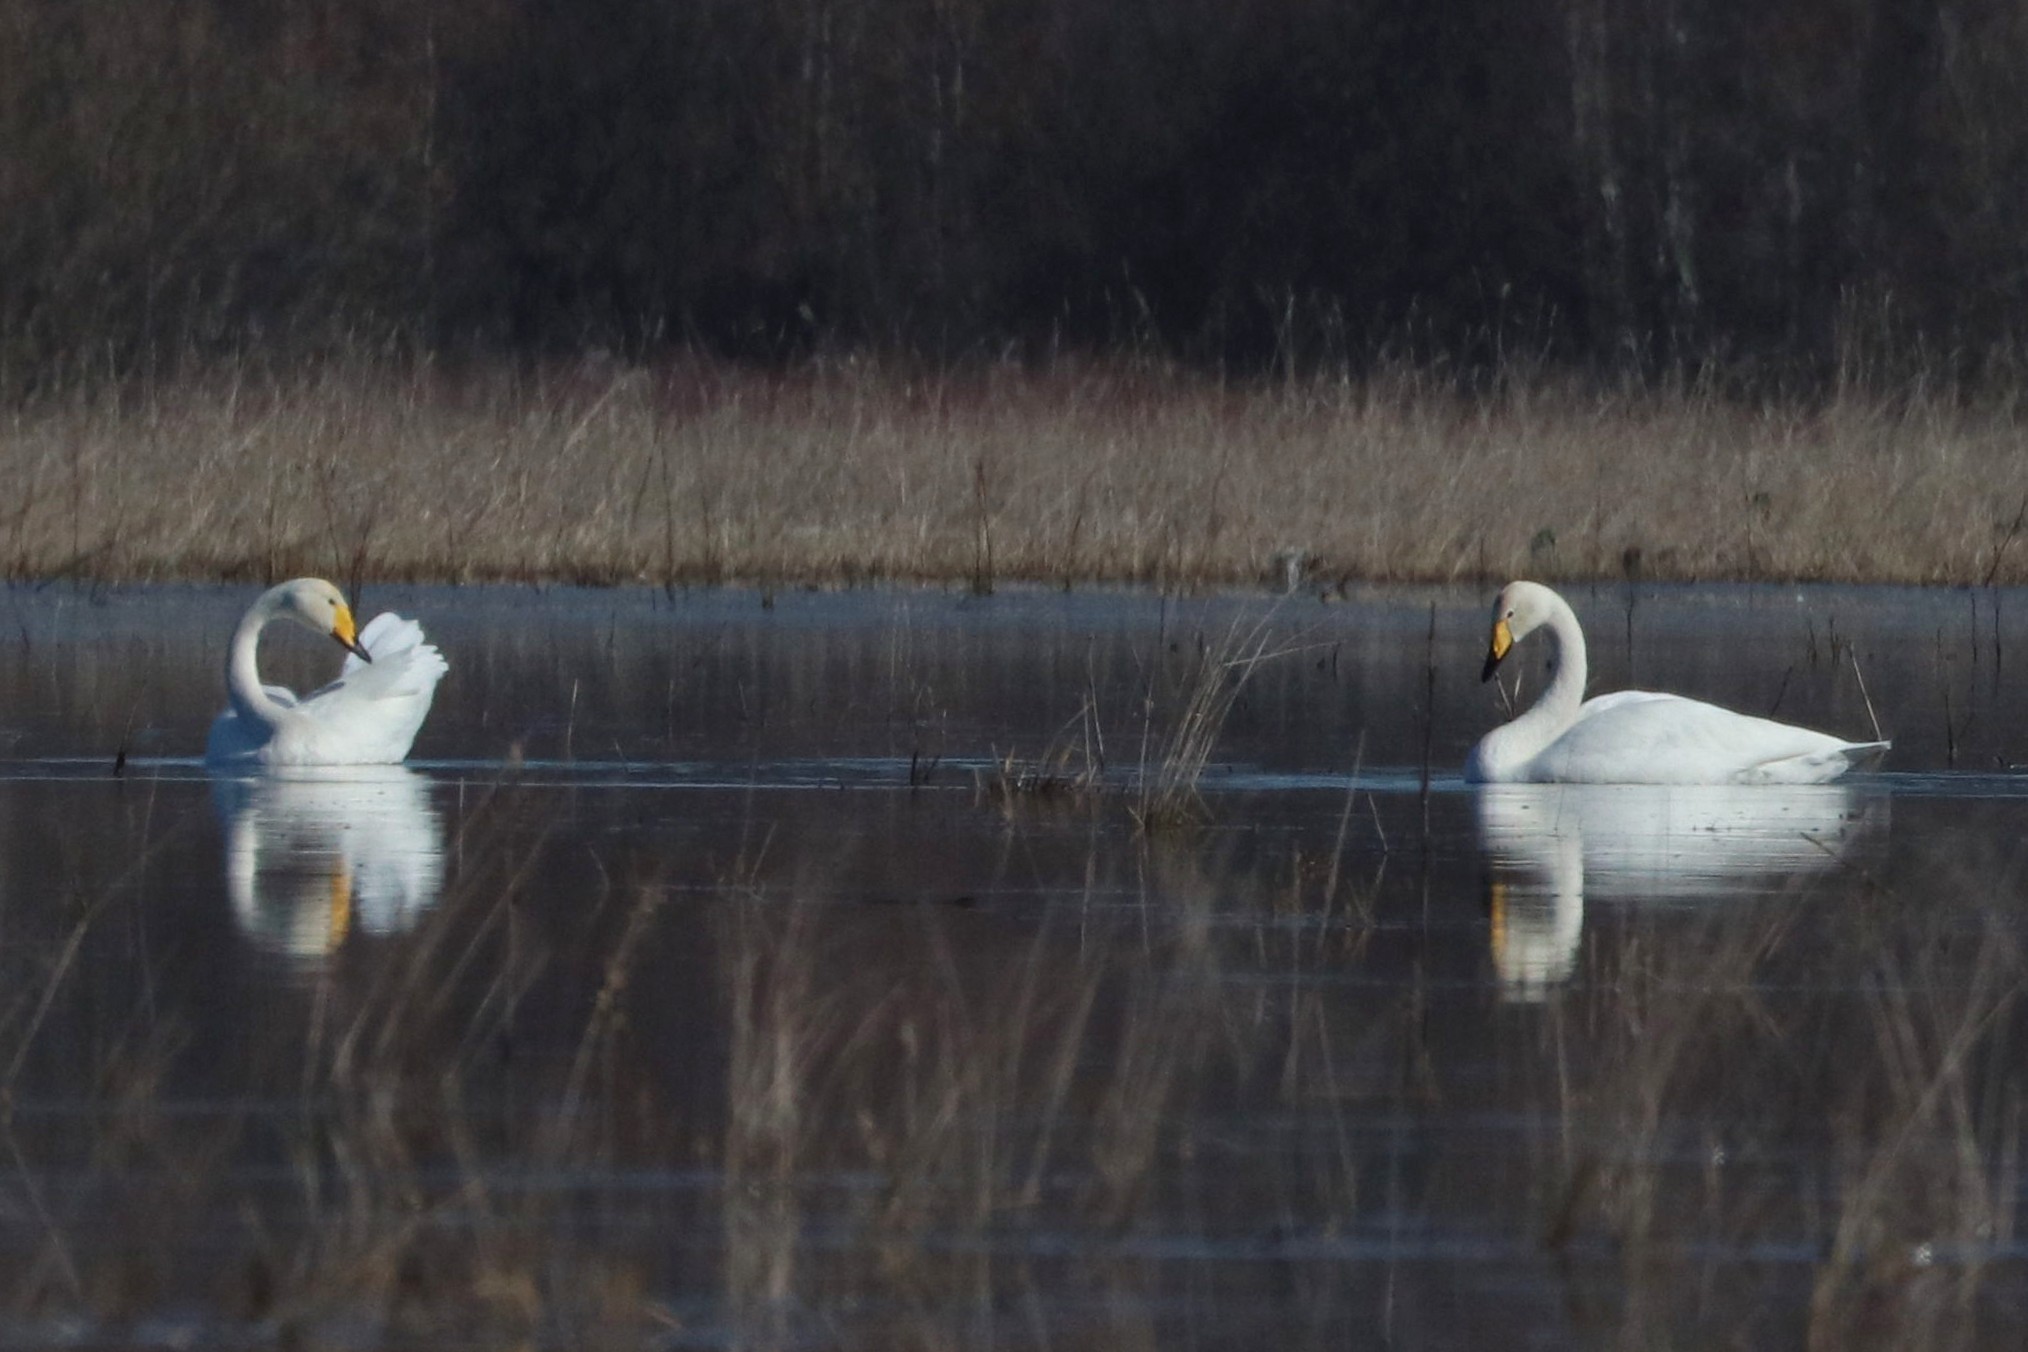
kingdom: Animalia
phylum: Chordata
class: Aves
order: Anseriformes
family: Anatidae
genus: Cygnus
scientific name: Cygnus cygnus
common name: Whooper swan
